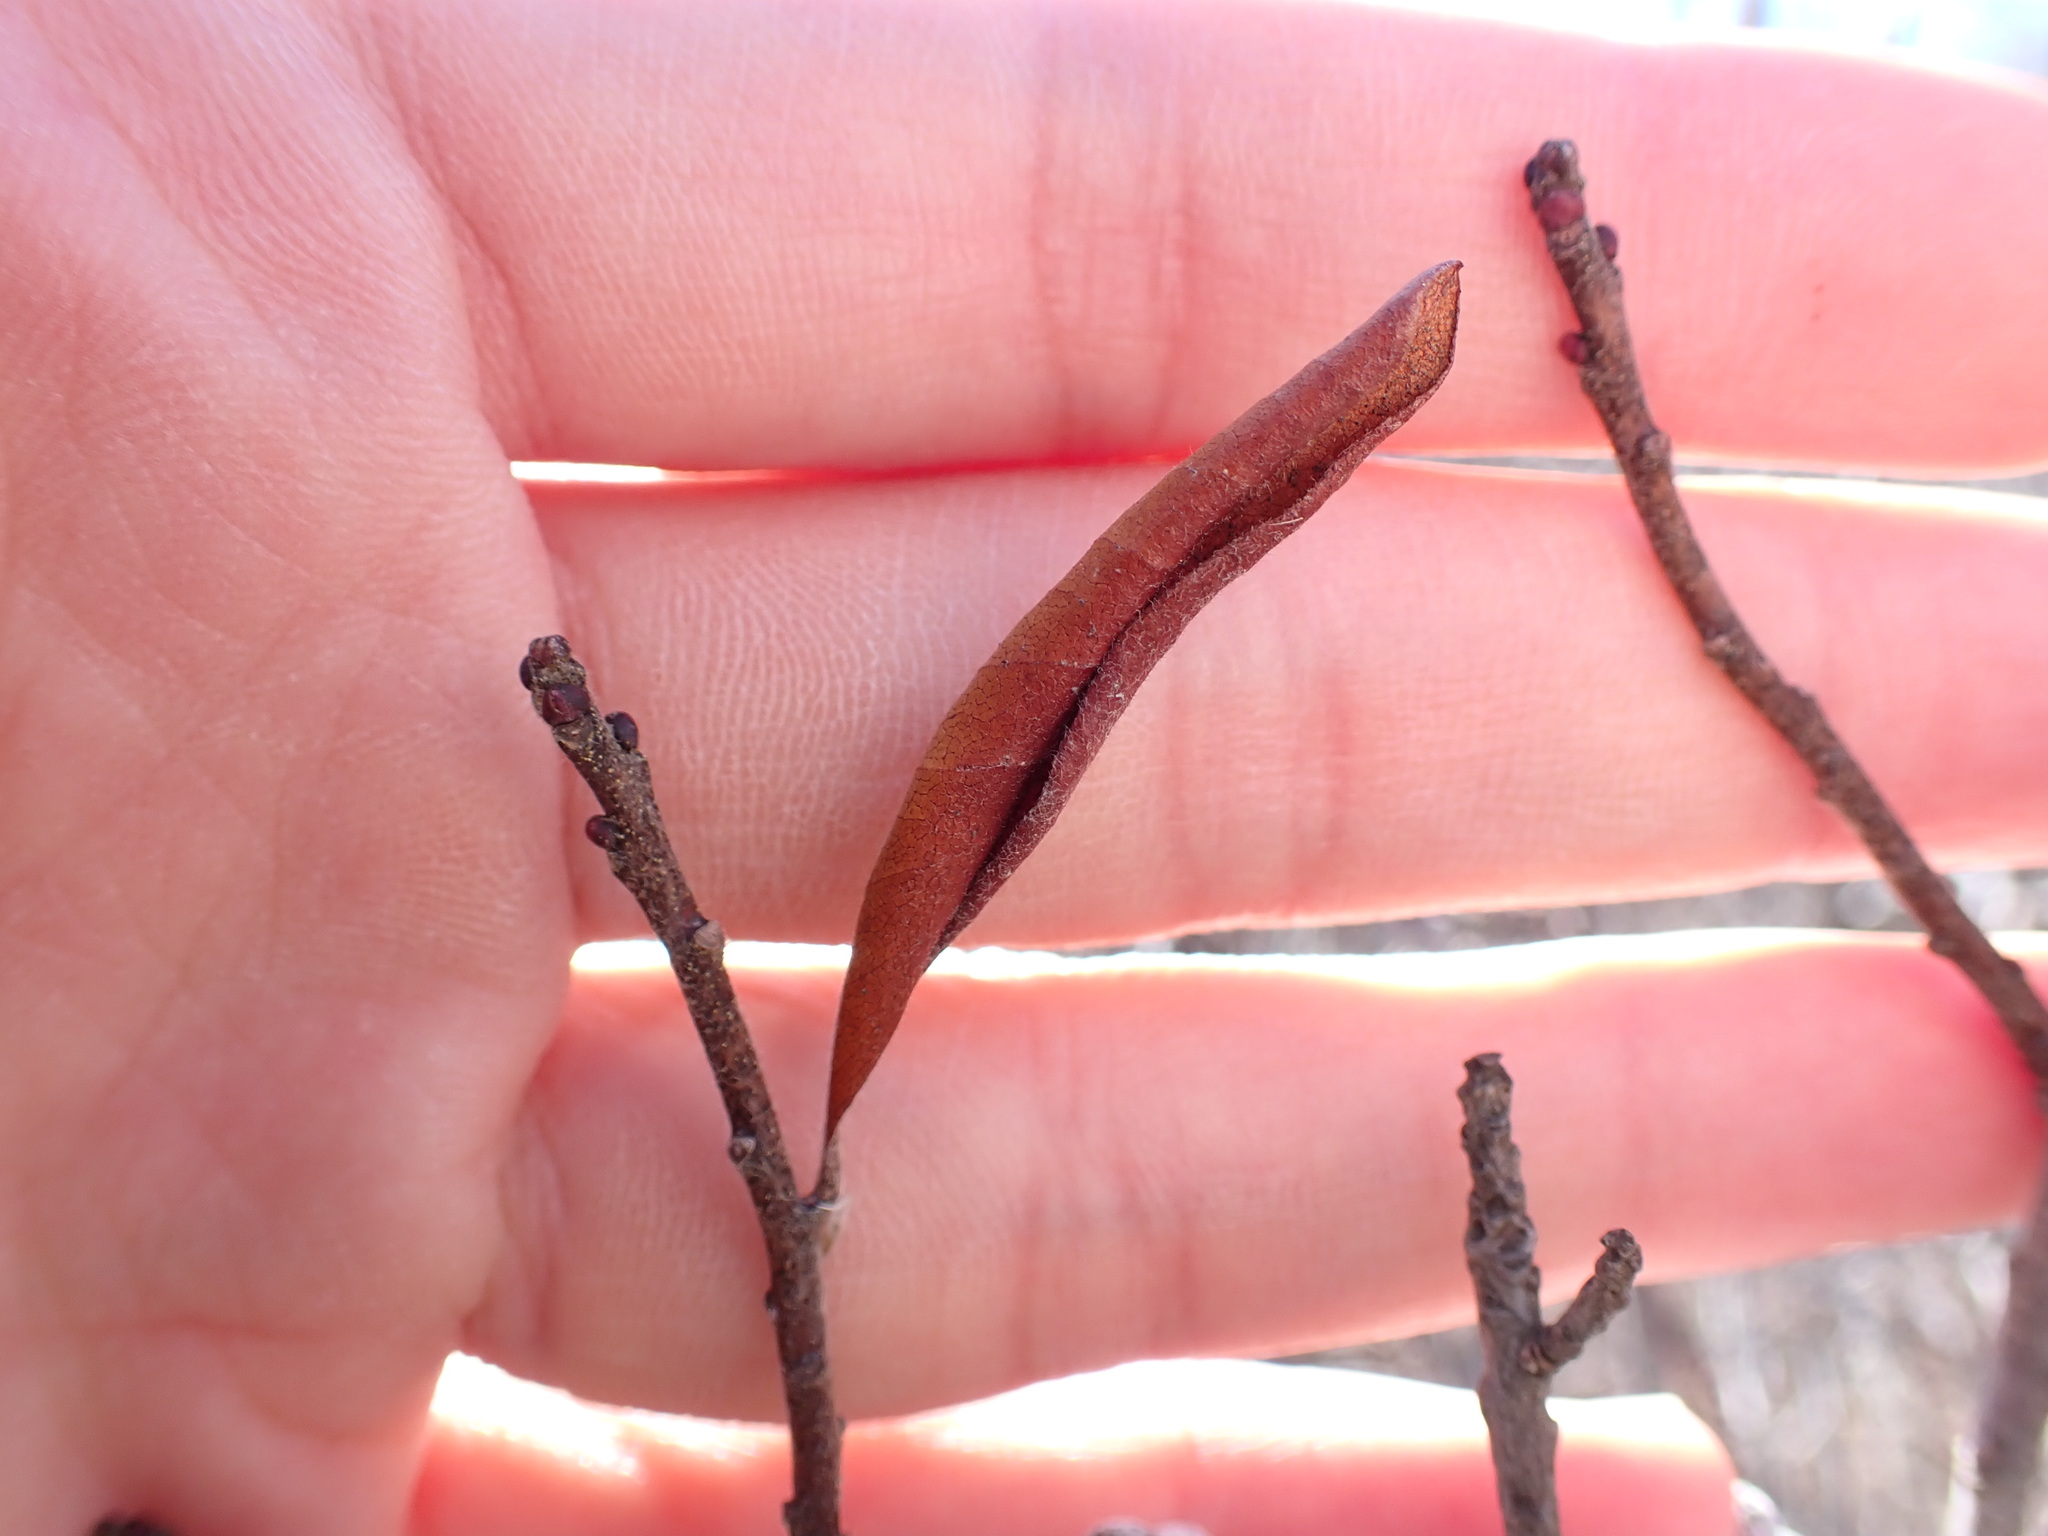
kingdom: Plantae
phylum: Tracheophyta
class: Magnoliopsida
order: Fagales
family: Myricaceae
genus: Morella
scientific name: Morella pensylvanica
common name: Northern bayberry
